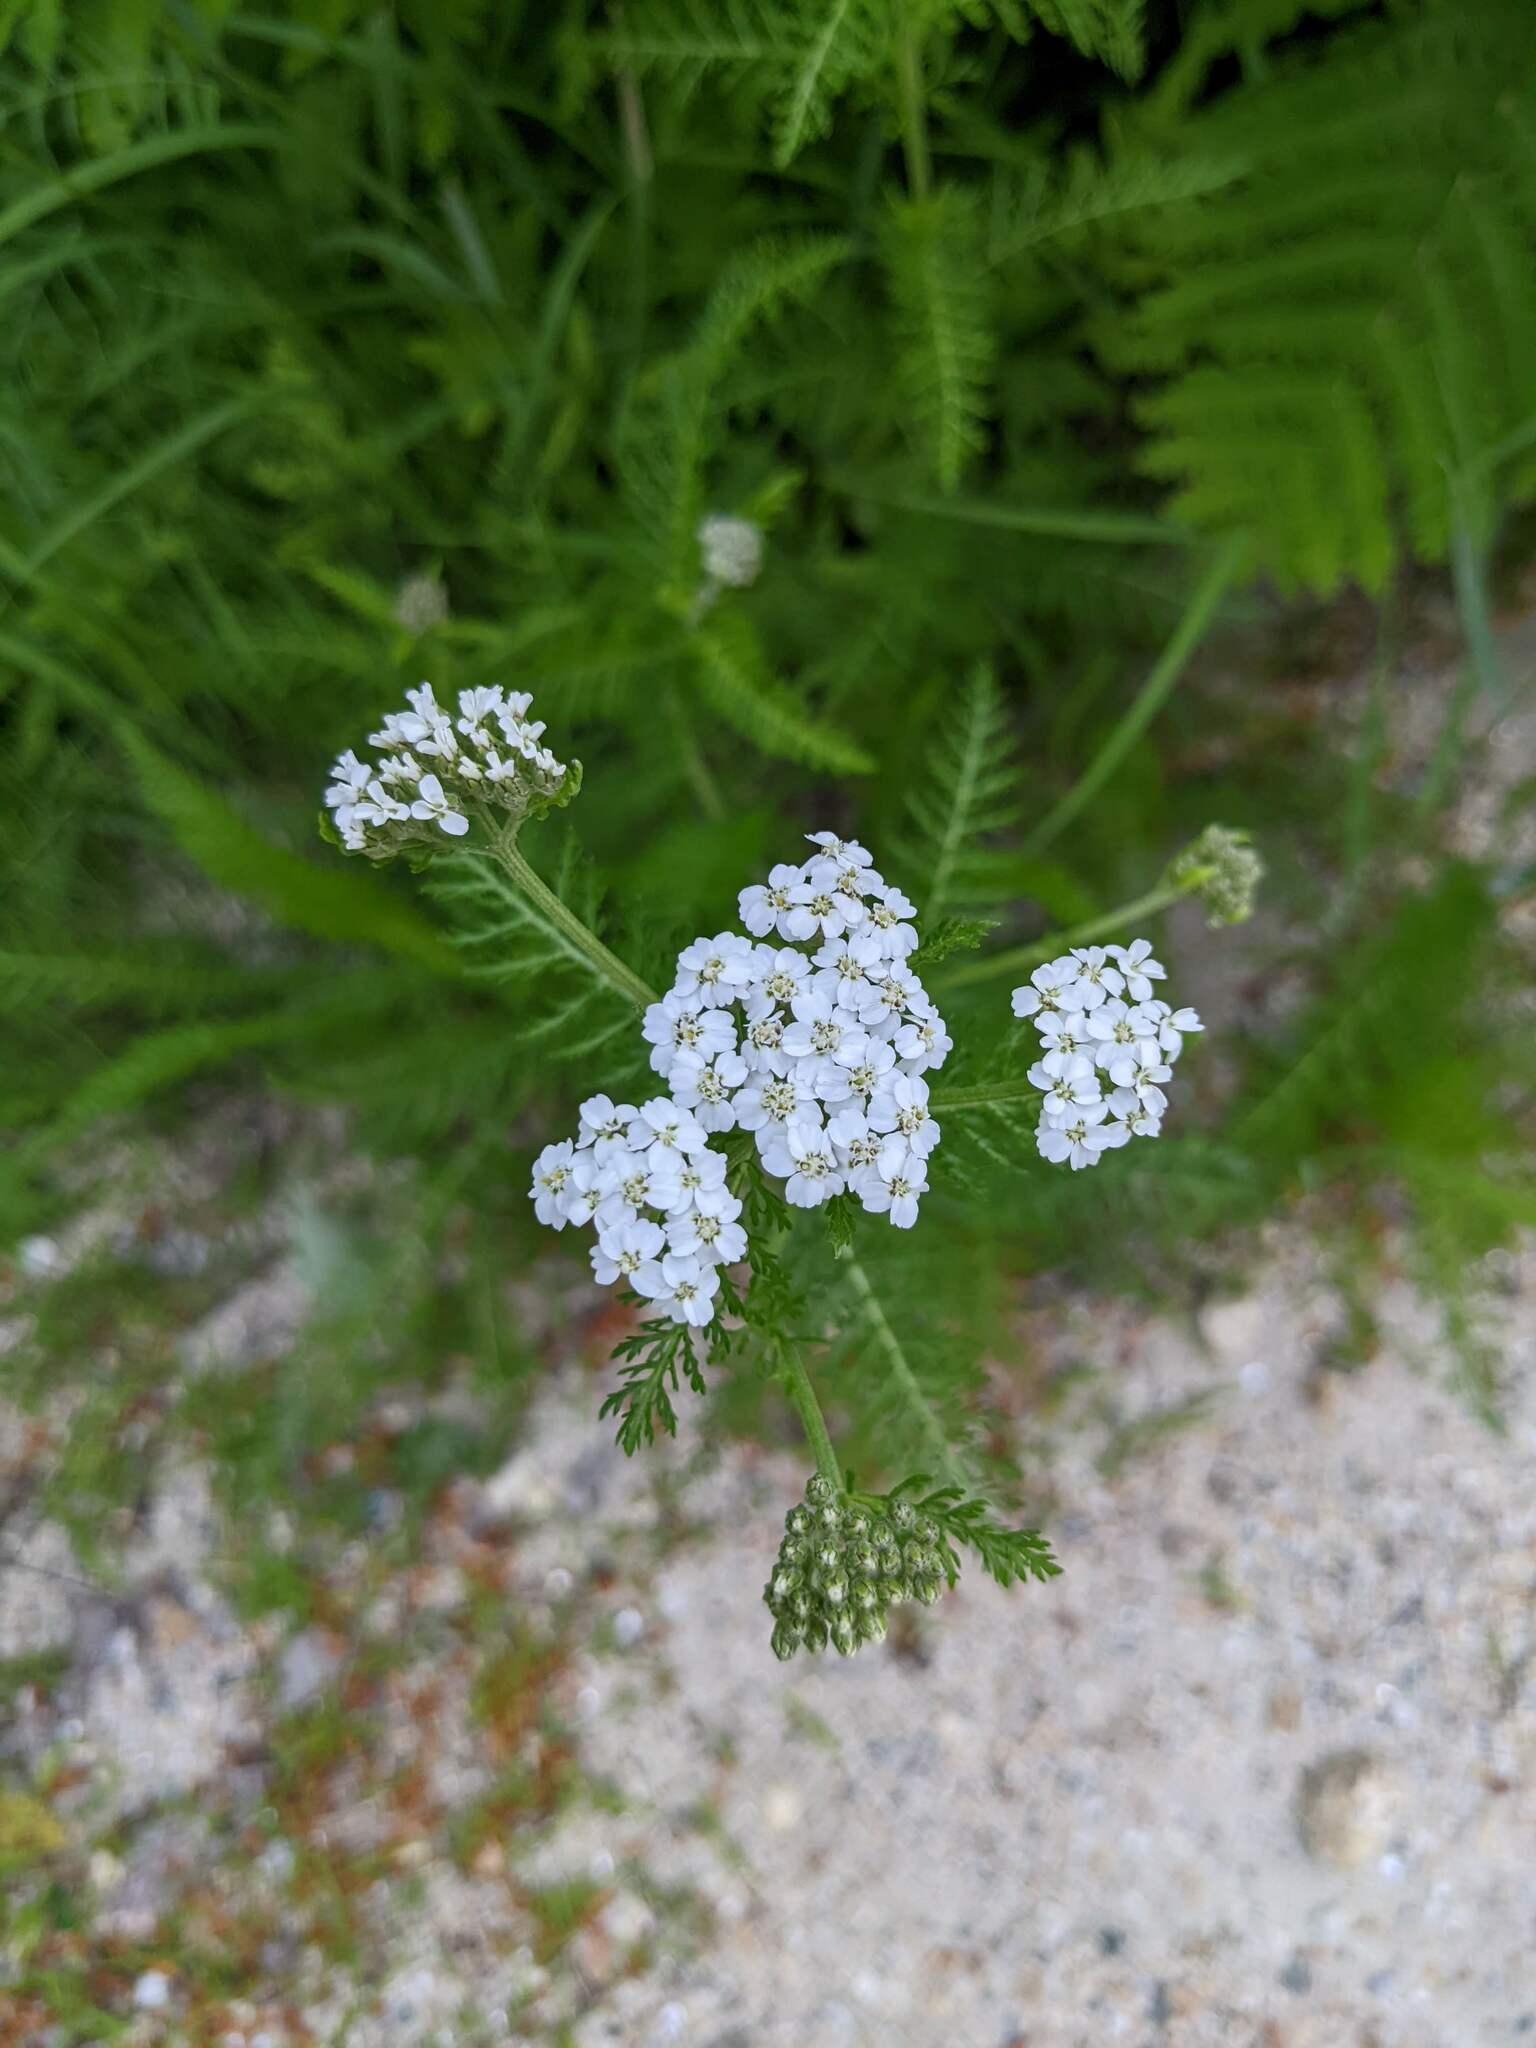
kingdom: Plantae
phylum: Tracheophyta
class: Magnoliopsida
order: Asterales
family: Asteraceae
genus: Achillea
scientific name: Achillea millefolium
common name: Yarrow
